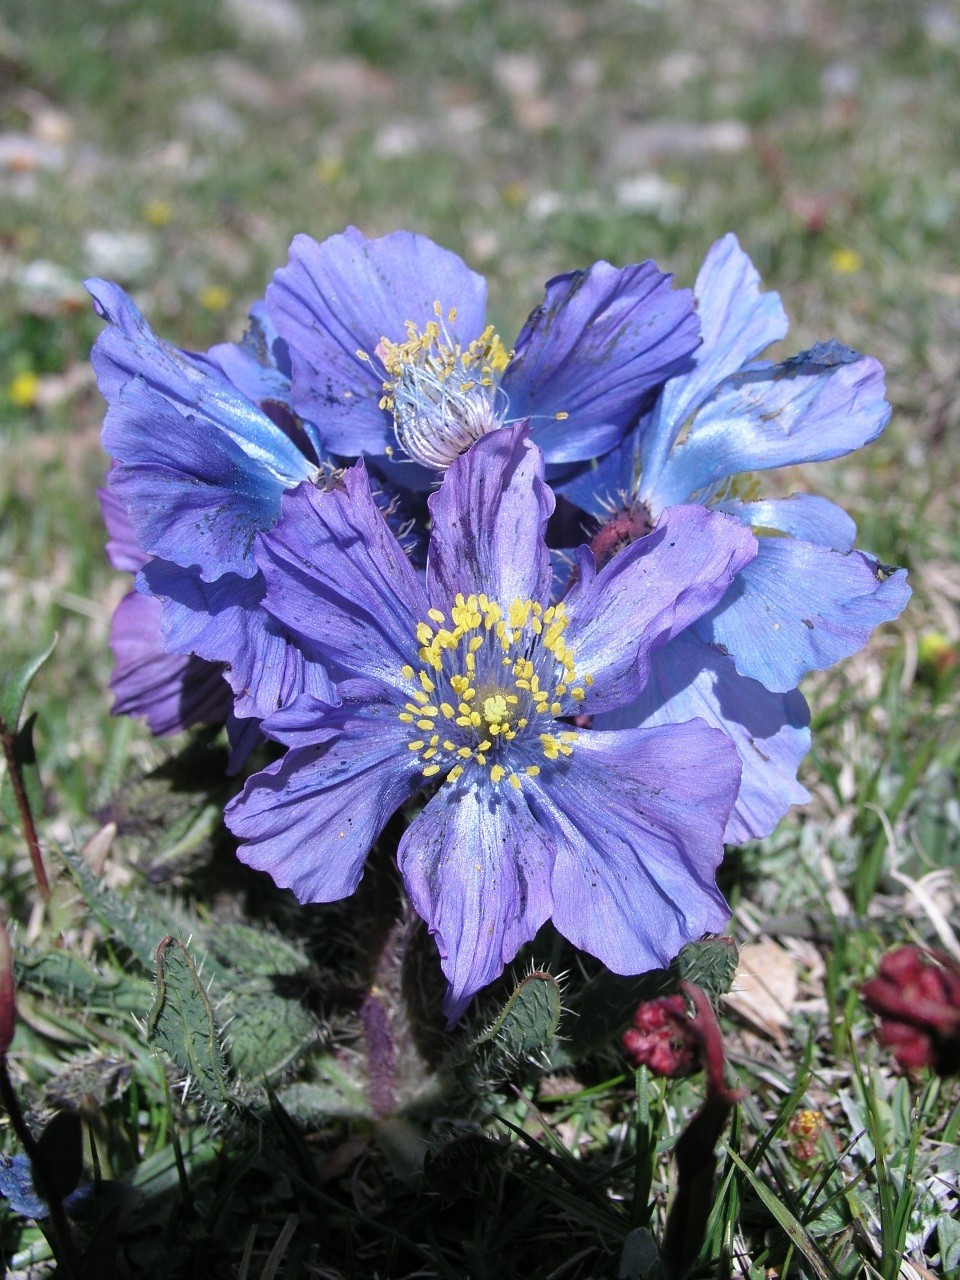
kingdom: Plantae
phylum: Tracheophyta
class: Magnoliopsida
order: Ranunculales
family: Papaveraceae
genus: Meconopsis
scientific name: Meconopsis horridula
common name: Prickly blue-poppy
